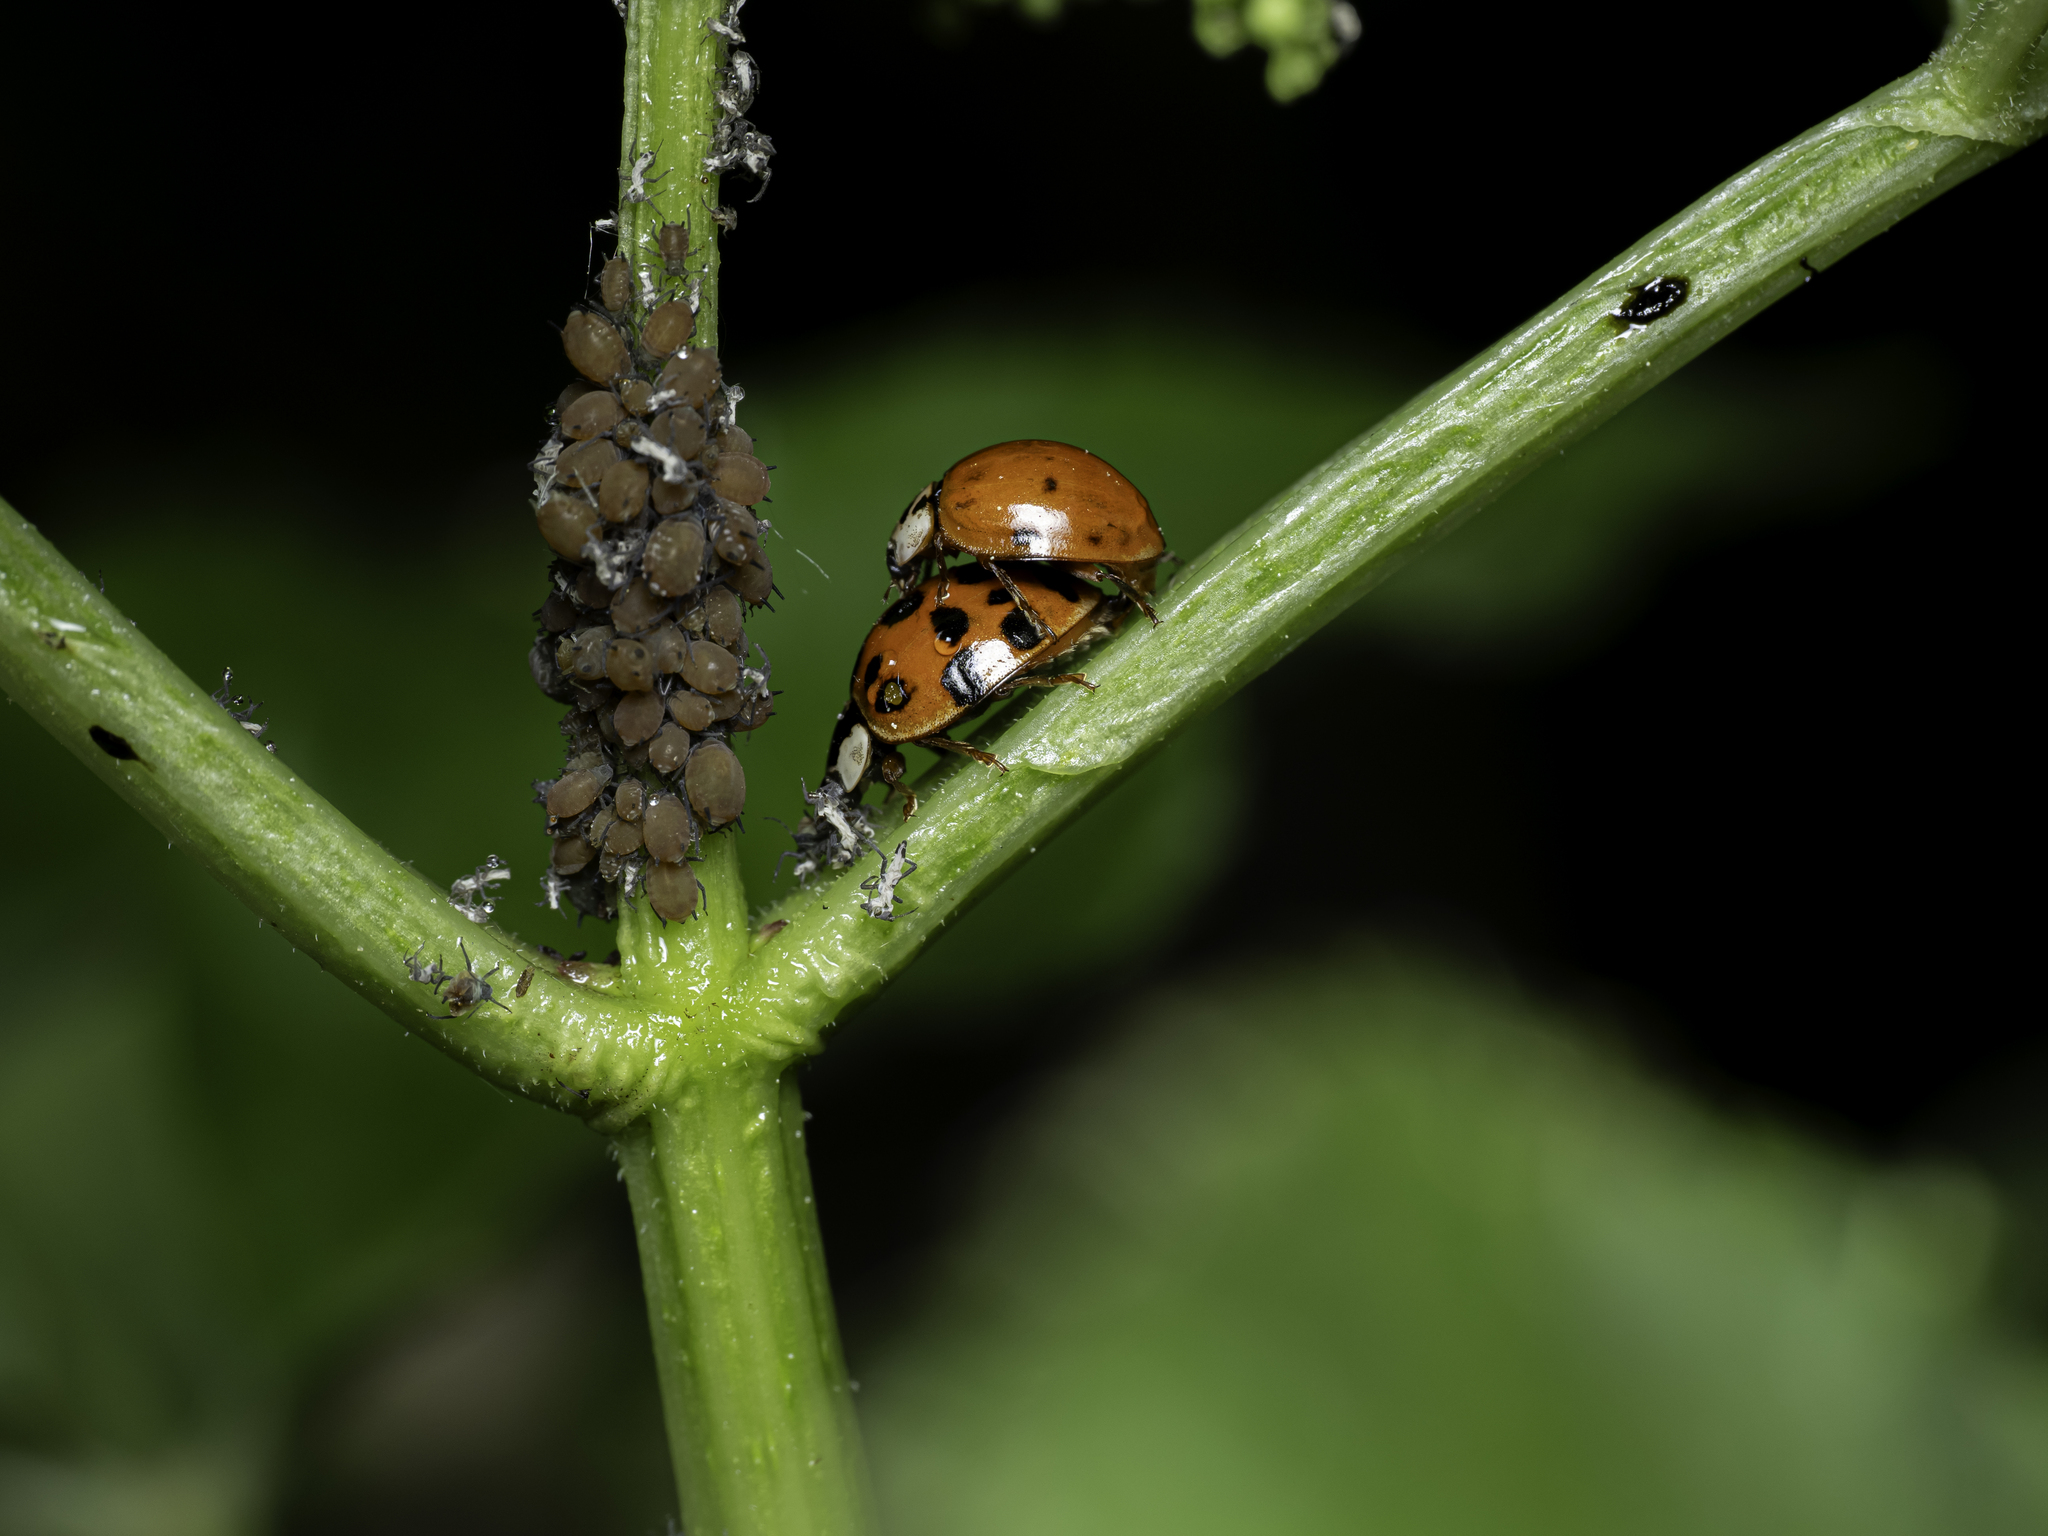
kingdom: Animalia
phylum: Arthropoda
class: Insecta
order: Coleoptera
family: Coccinellidae
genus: Harmonia
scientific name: Harmonia axyridis
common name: Harlequin ladybird
